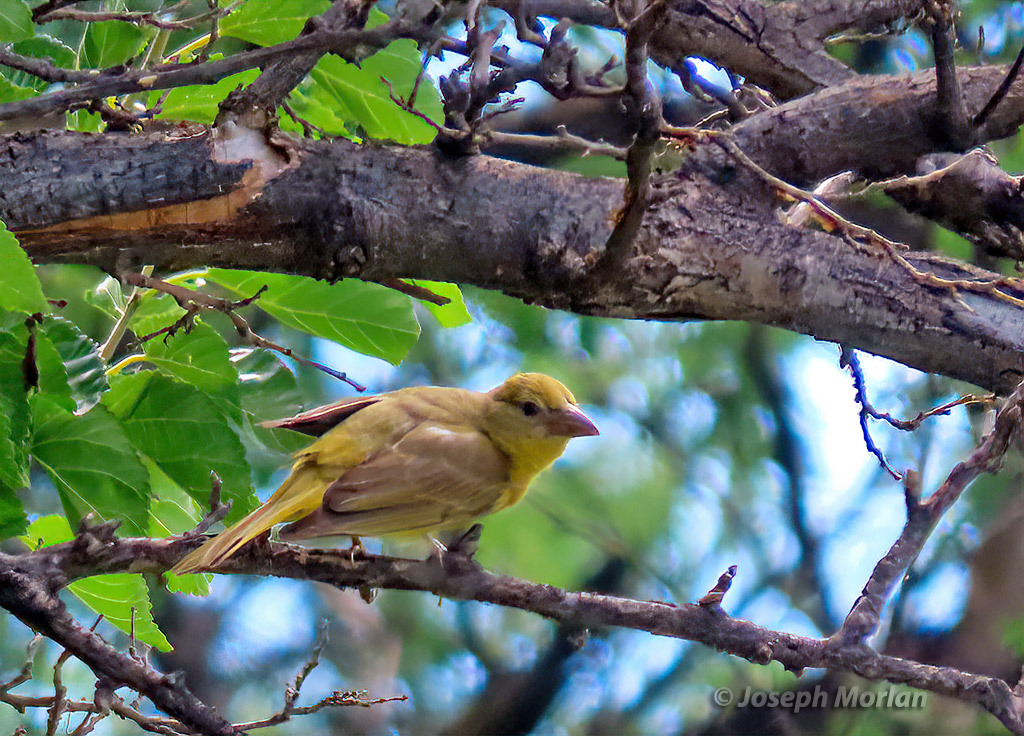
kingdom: Animalia
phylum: Chordata
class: Aves
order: Passeriformes
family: Cardinalidae
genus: Piranga
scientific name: Piranga rubra
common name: Summer tanager
